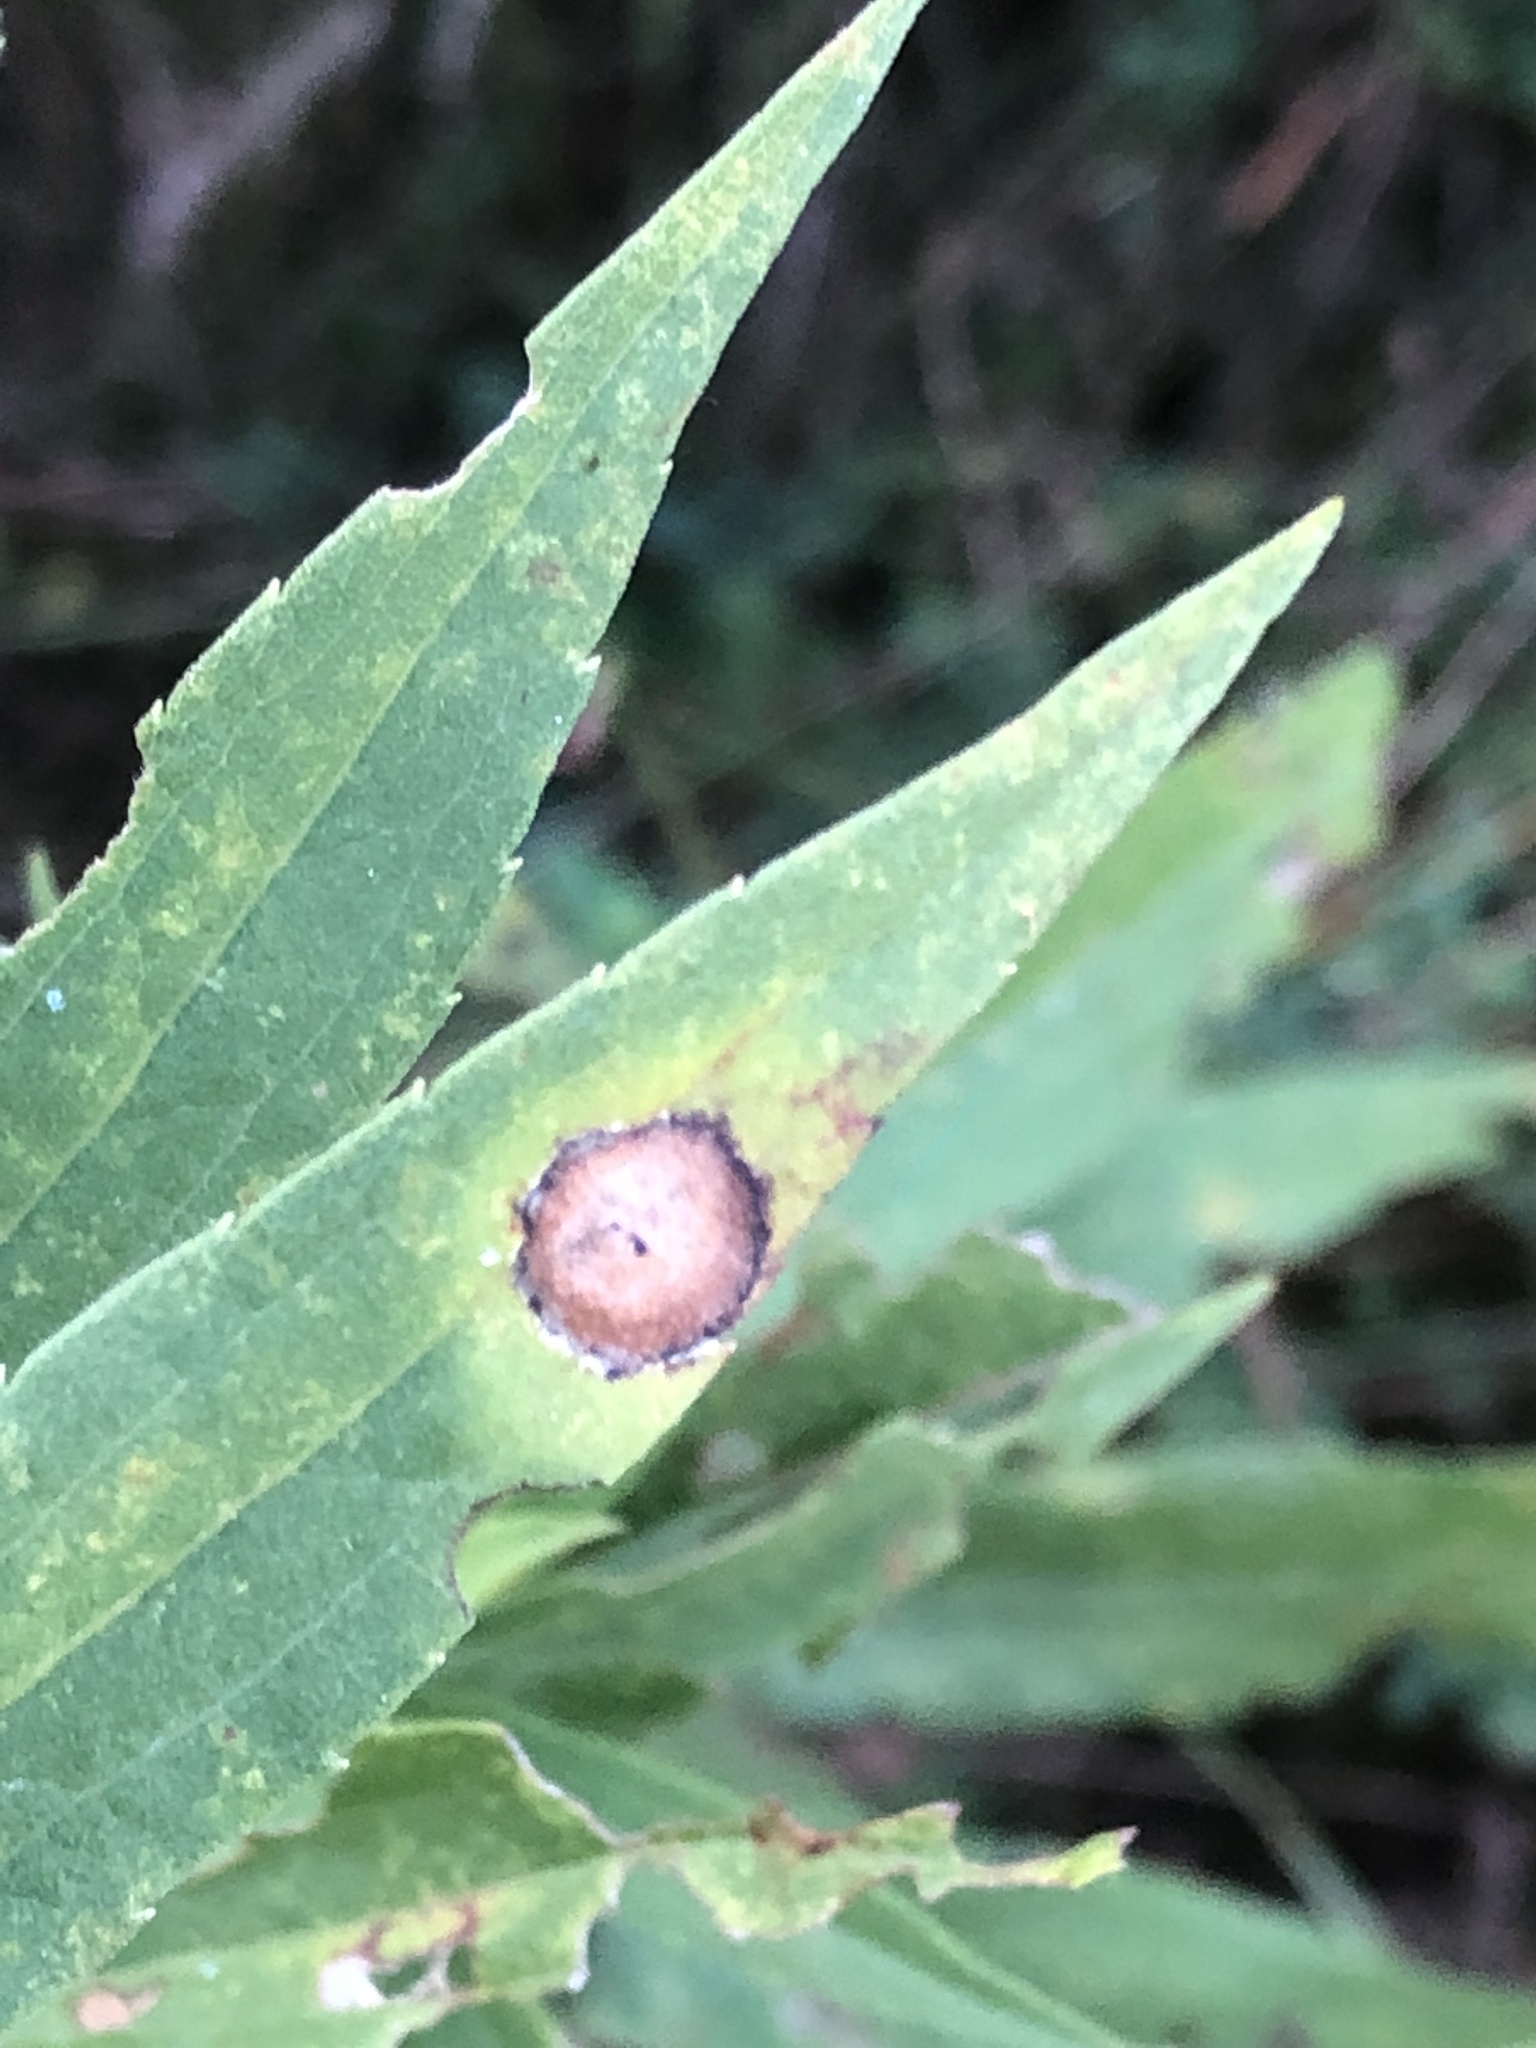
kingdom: Animalia
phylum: Arthropoda
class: Insecta
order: Diptera
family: Cecidomyiidae
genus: Asteromyia
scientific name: Asteromyia carbonifera
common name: Carbonifera goldenrod gall midge
